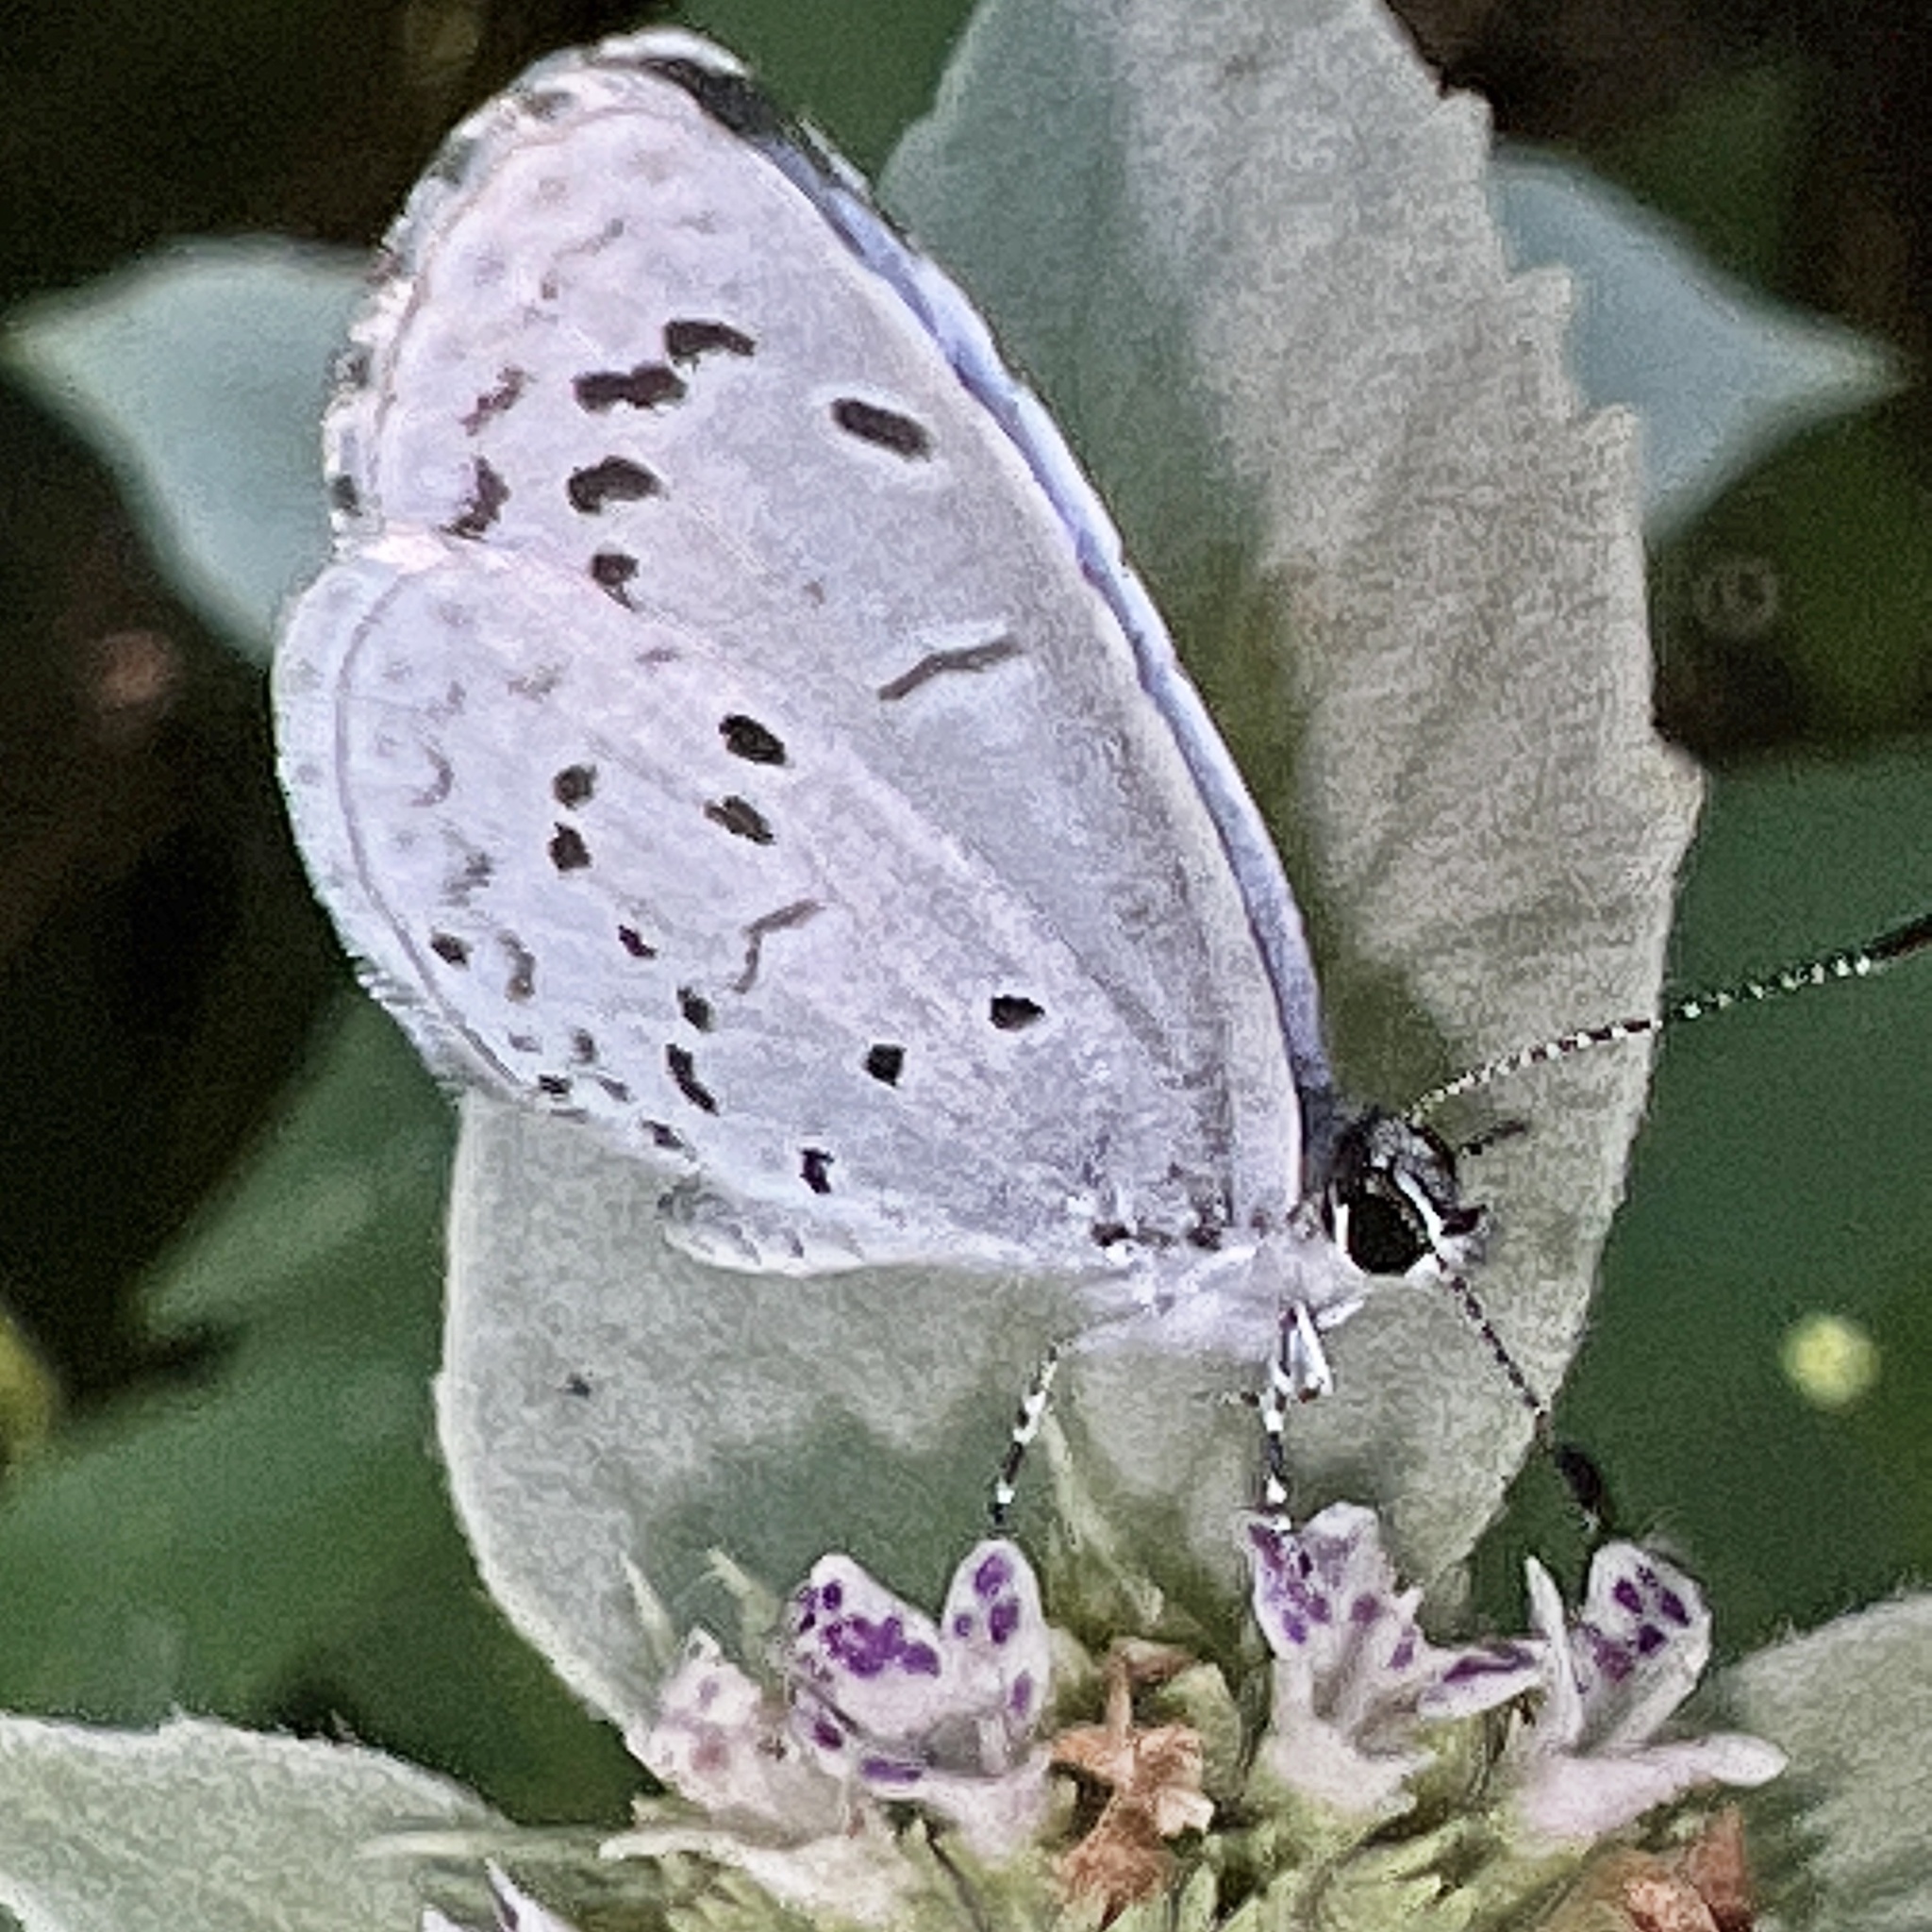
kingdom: Animalia
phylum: Arthropoda
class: Insecta
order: Lepidoptera
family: Lycaenidae
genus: Cyaniris
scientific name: Cyaniris neglecta
